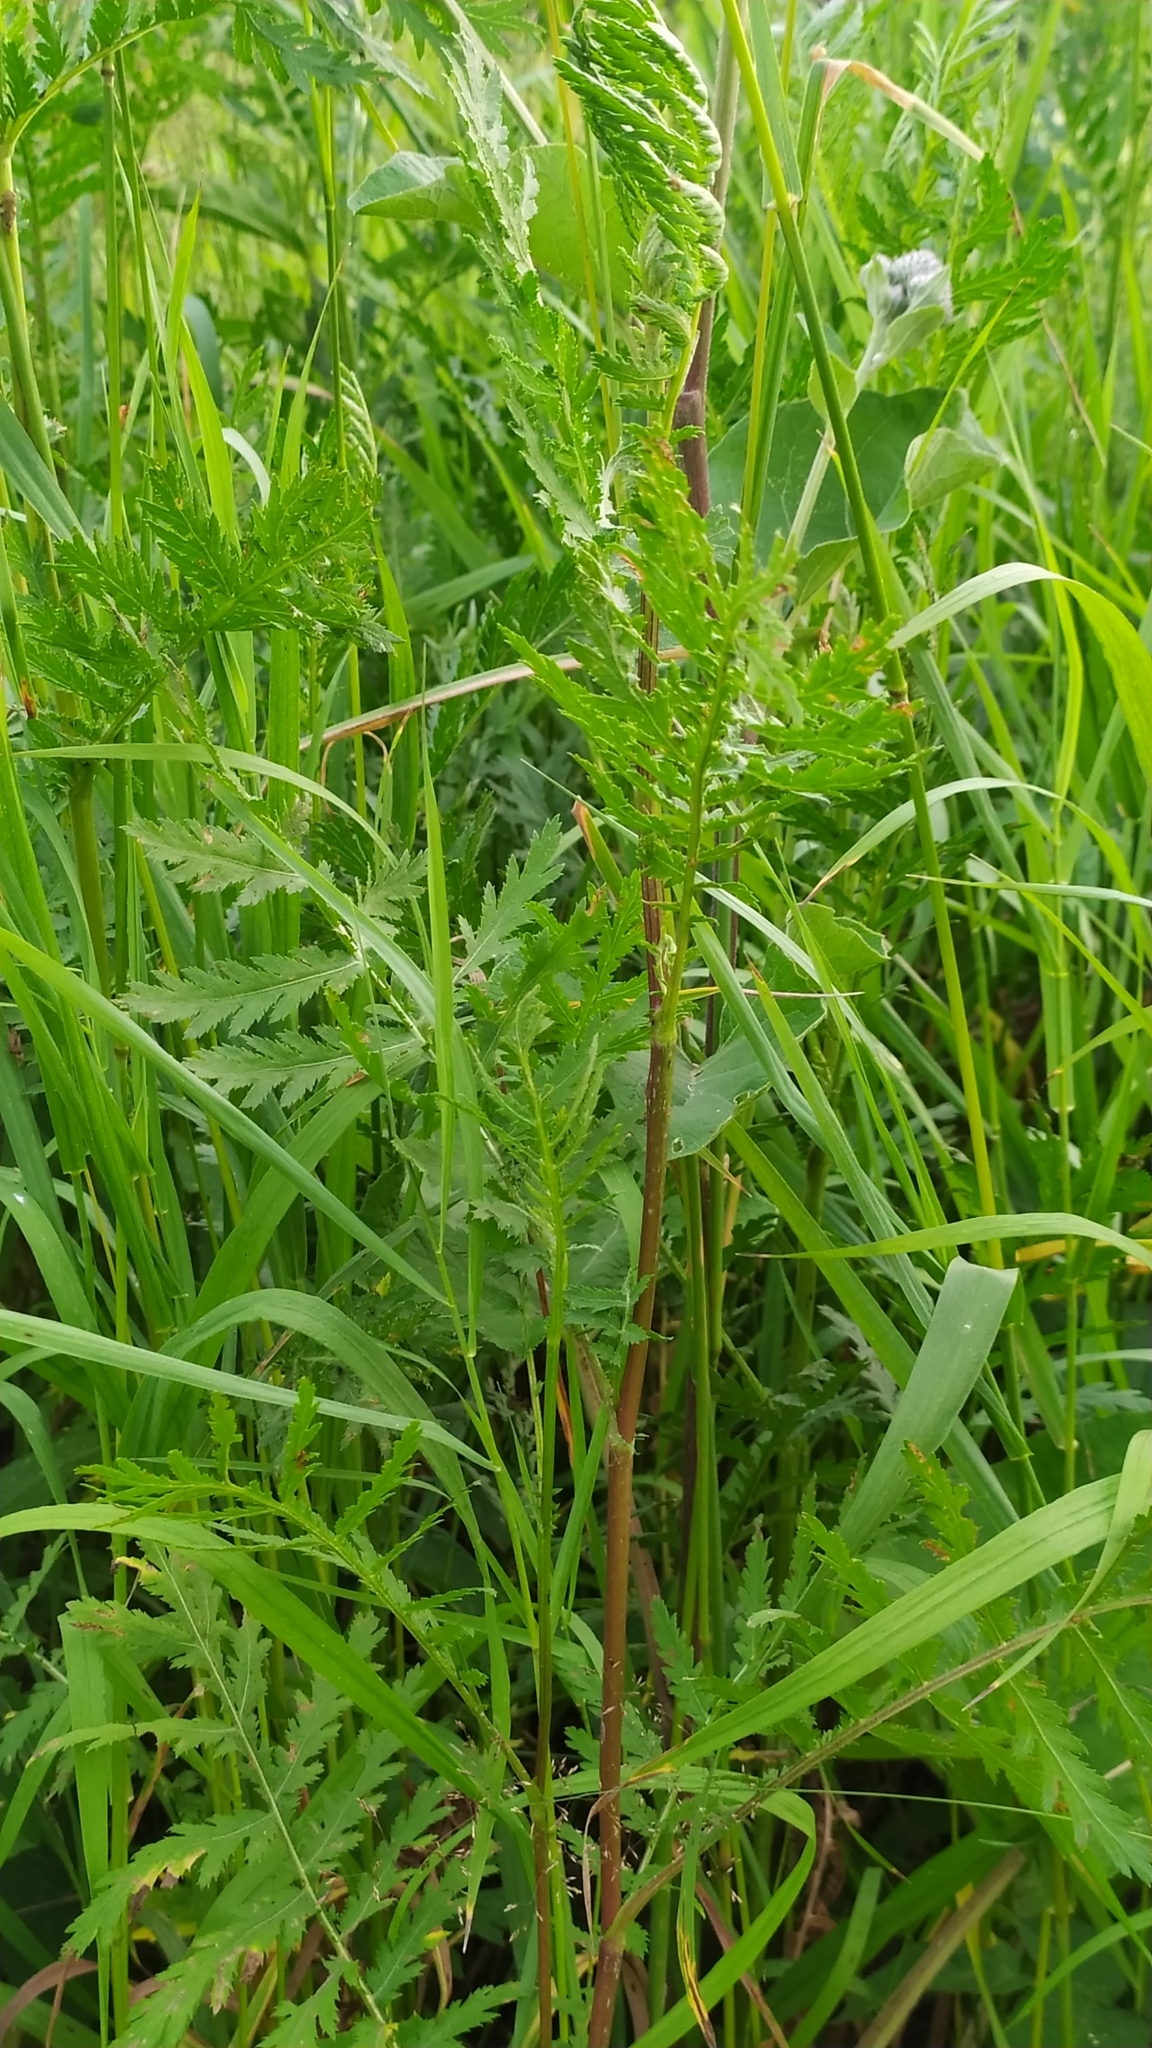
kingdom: Plantae
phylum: Tracheophyta
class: Magnoliopsida
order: Asterales
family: Asteraceae
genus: Tanacetum
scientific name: Tanacetum vulgare
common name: Common tansy
